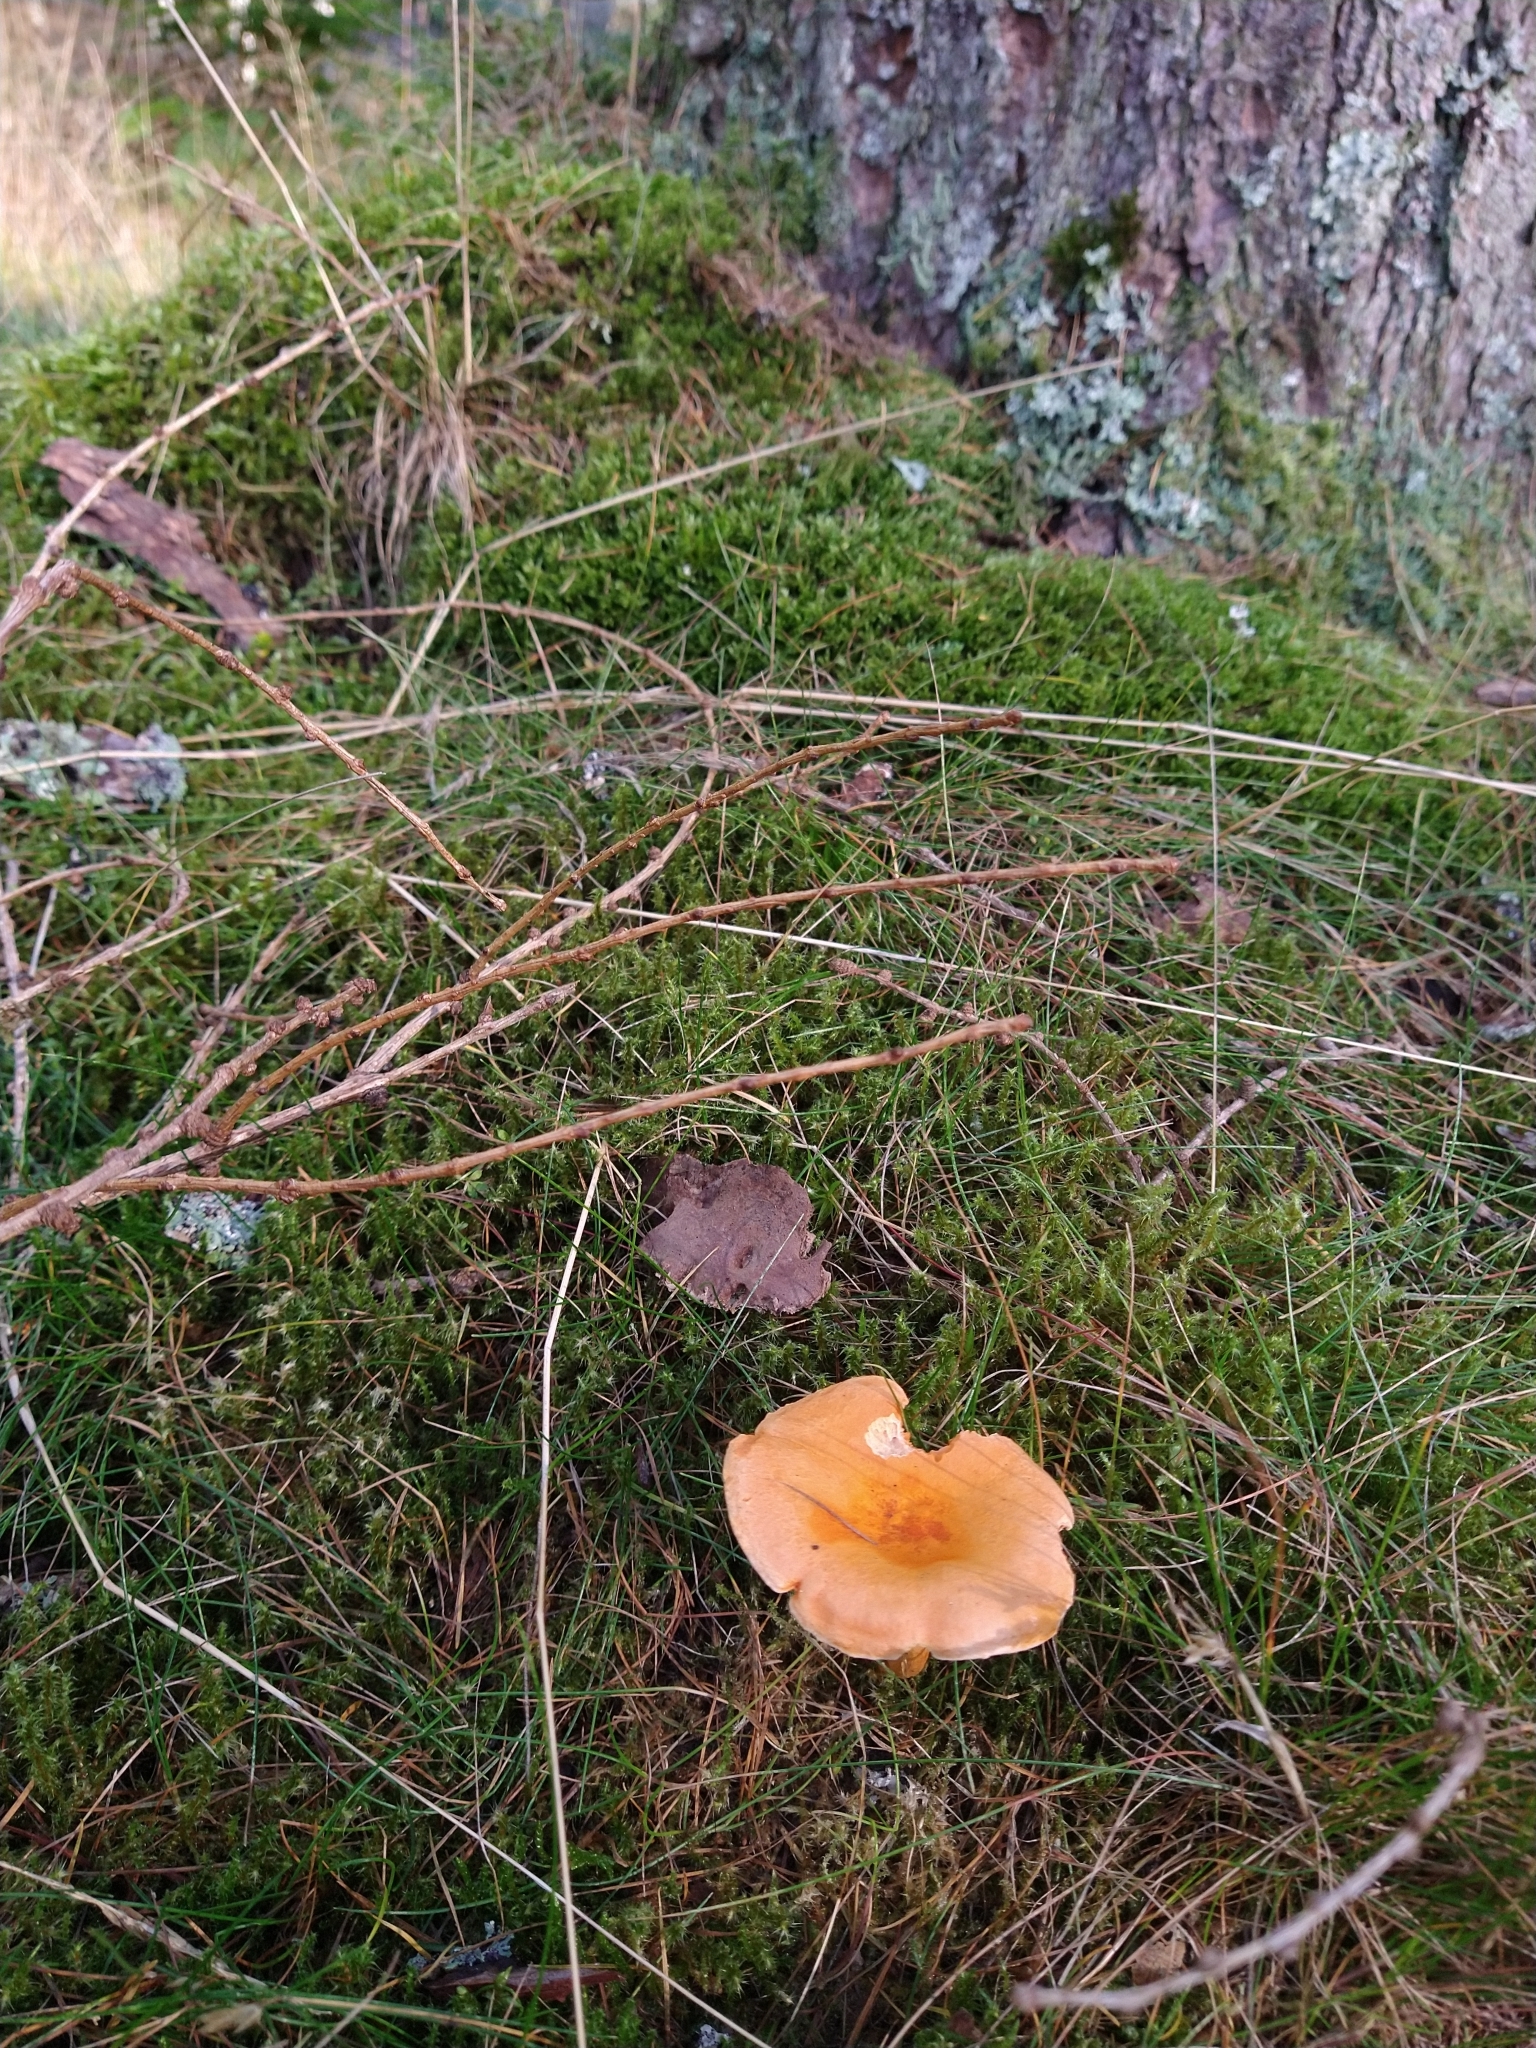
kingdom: Fungi
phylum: Basidiomycota
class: Agaricomycetes
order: Boletales
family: Hygrophoropsidaceae
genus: Hygrophoropsis
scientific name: Hygrophoropsis aurantiaca
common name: False chanterelle
